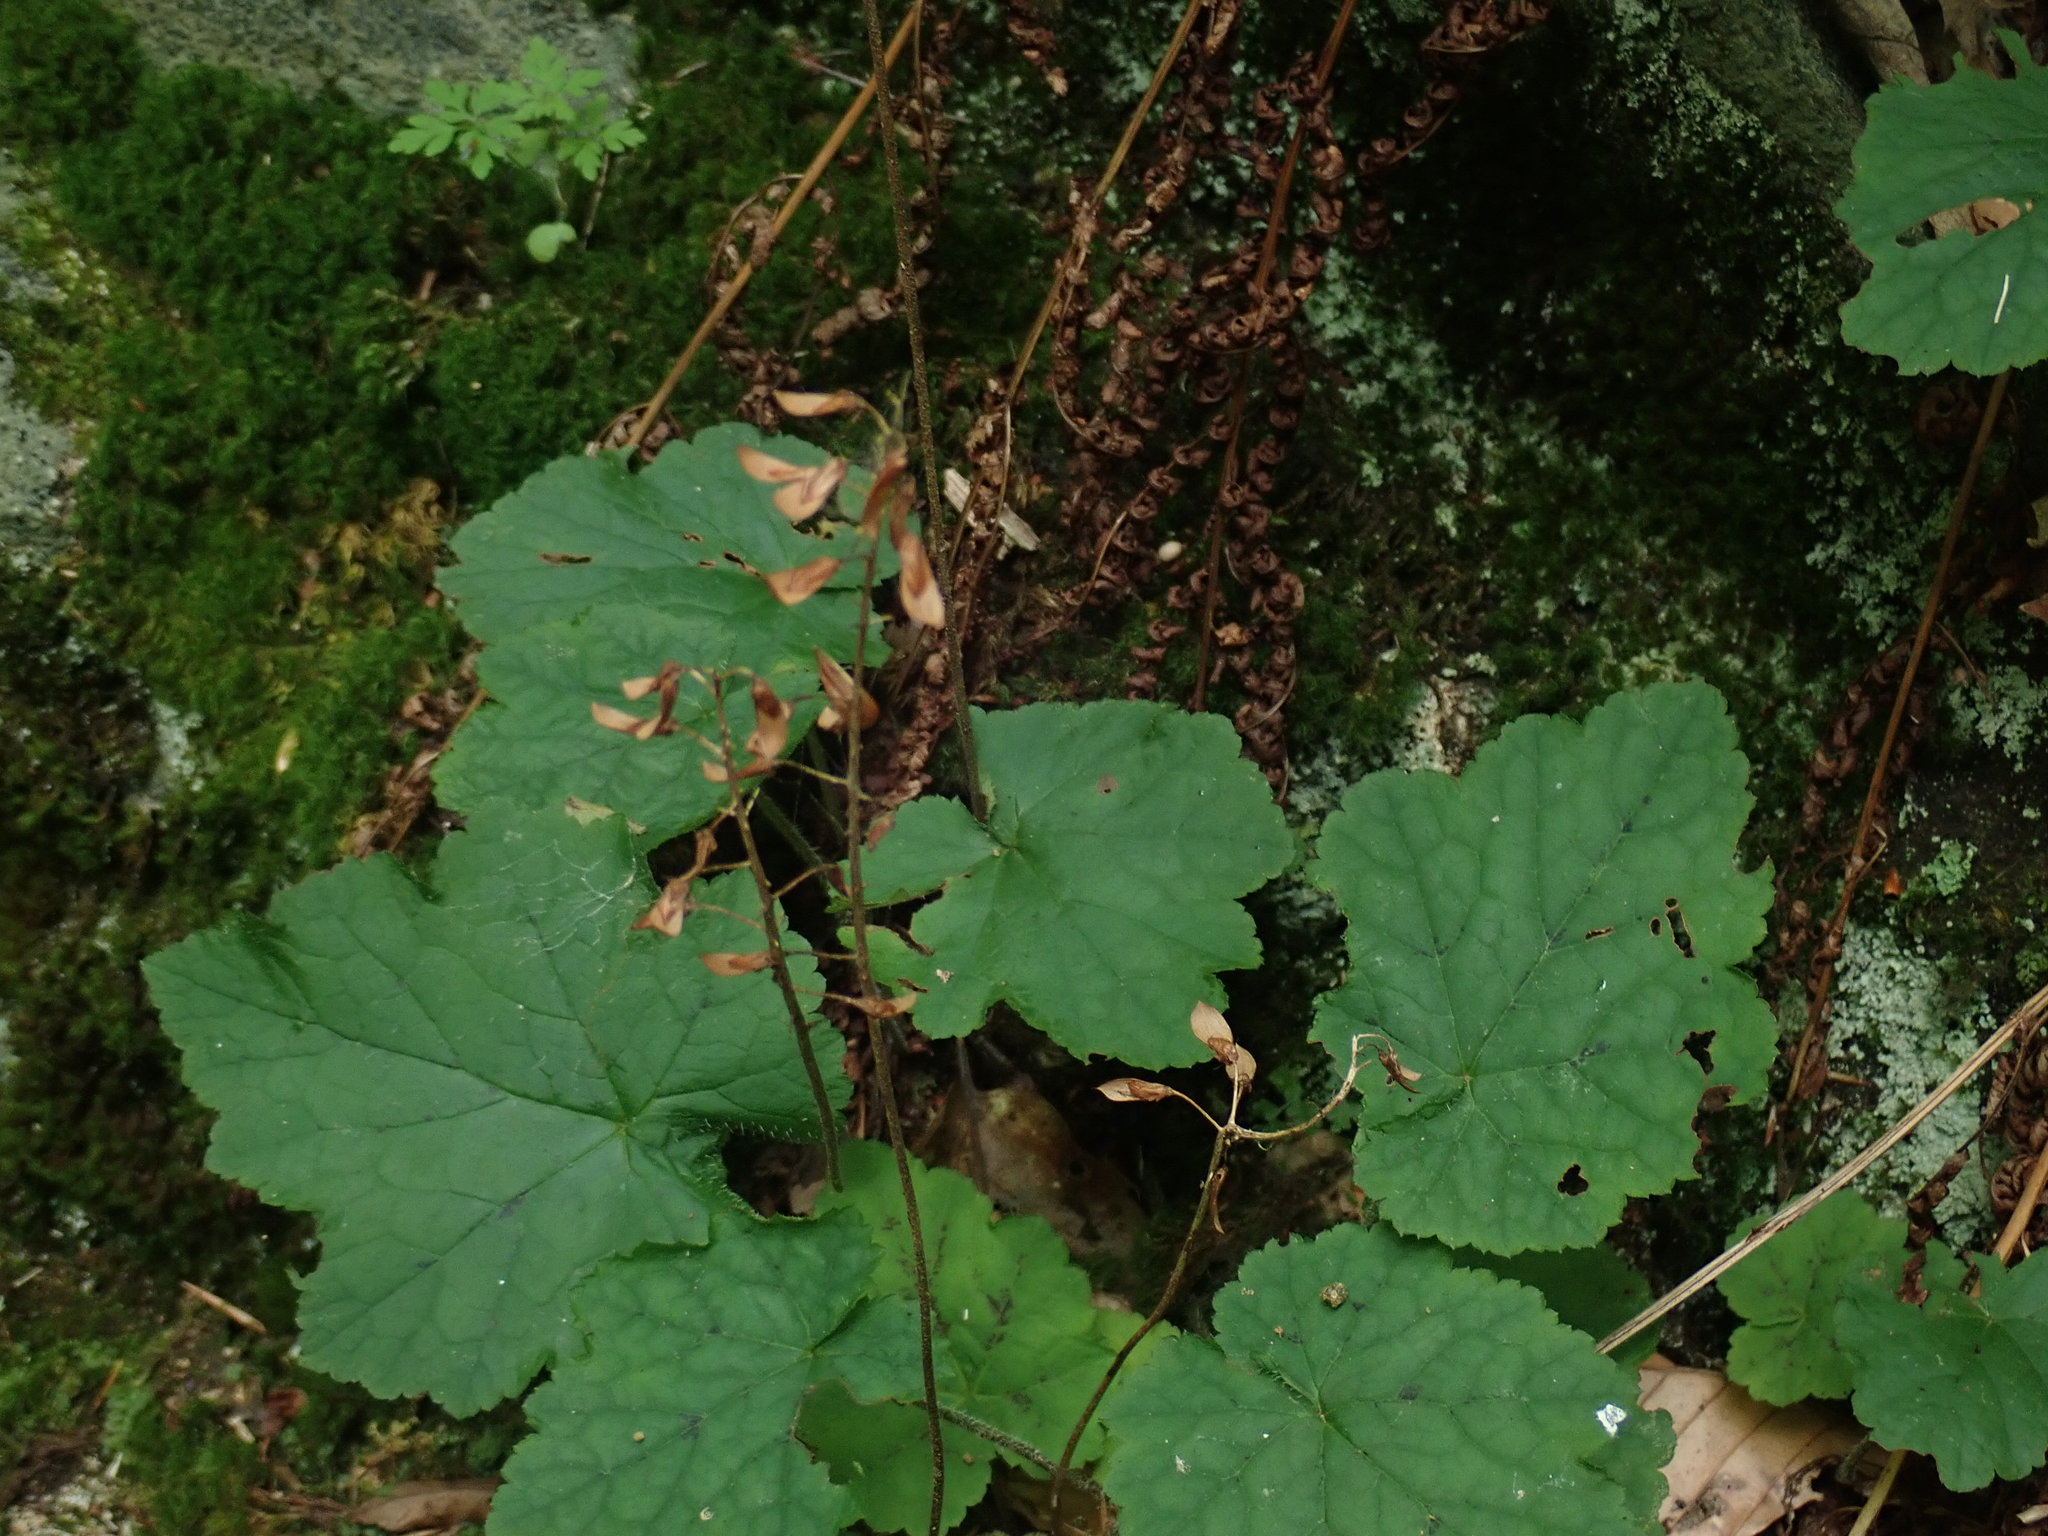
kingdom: Plantae
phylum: Tracheophyta
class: Magnoliopsida
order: Saxifragales
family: Saxifragaceae
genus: Tiarella
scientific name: Tiarella stolonifera
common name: Stoloniferous foamflower
